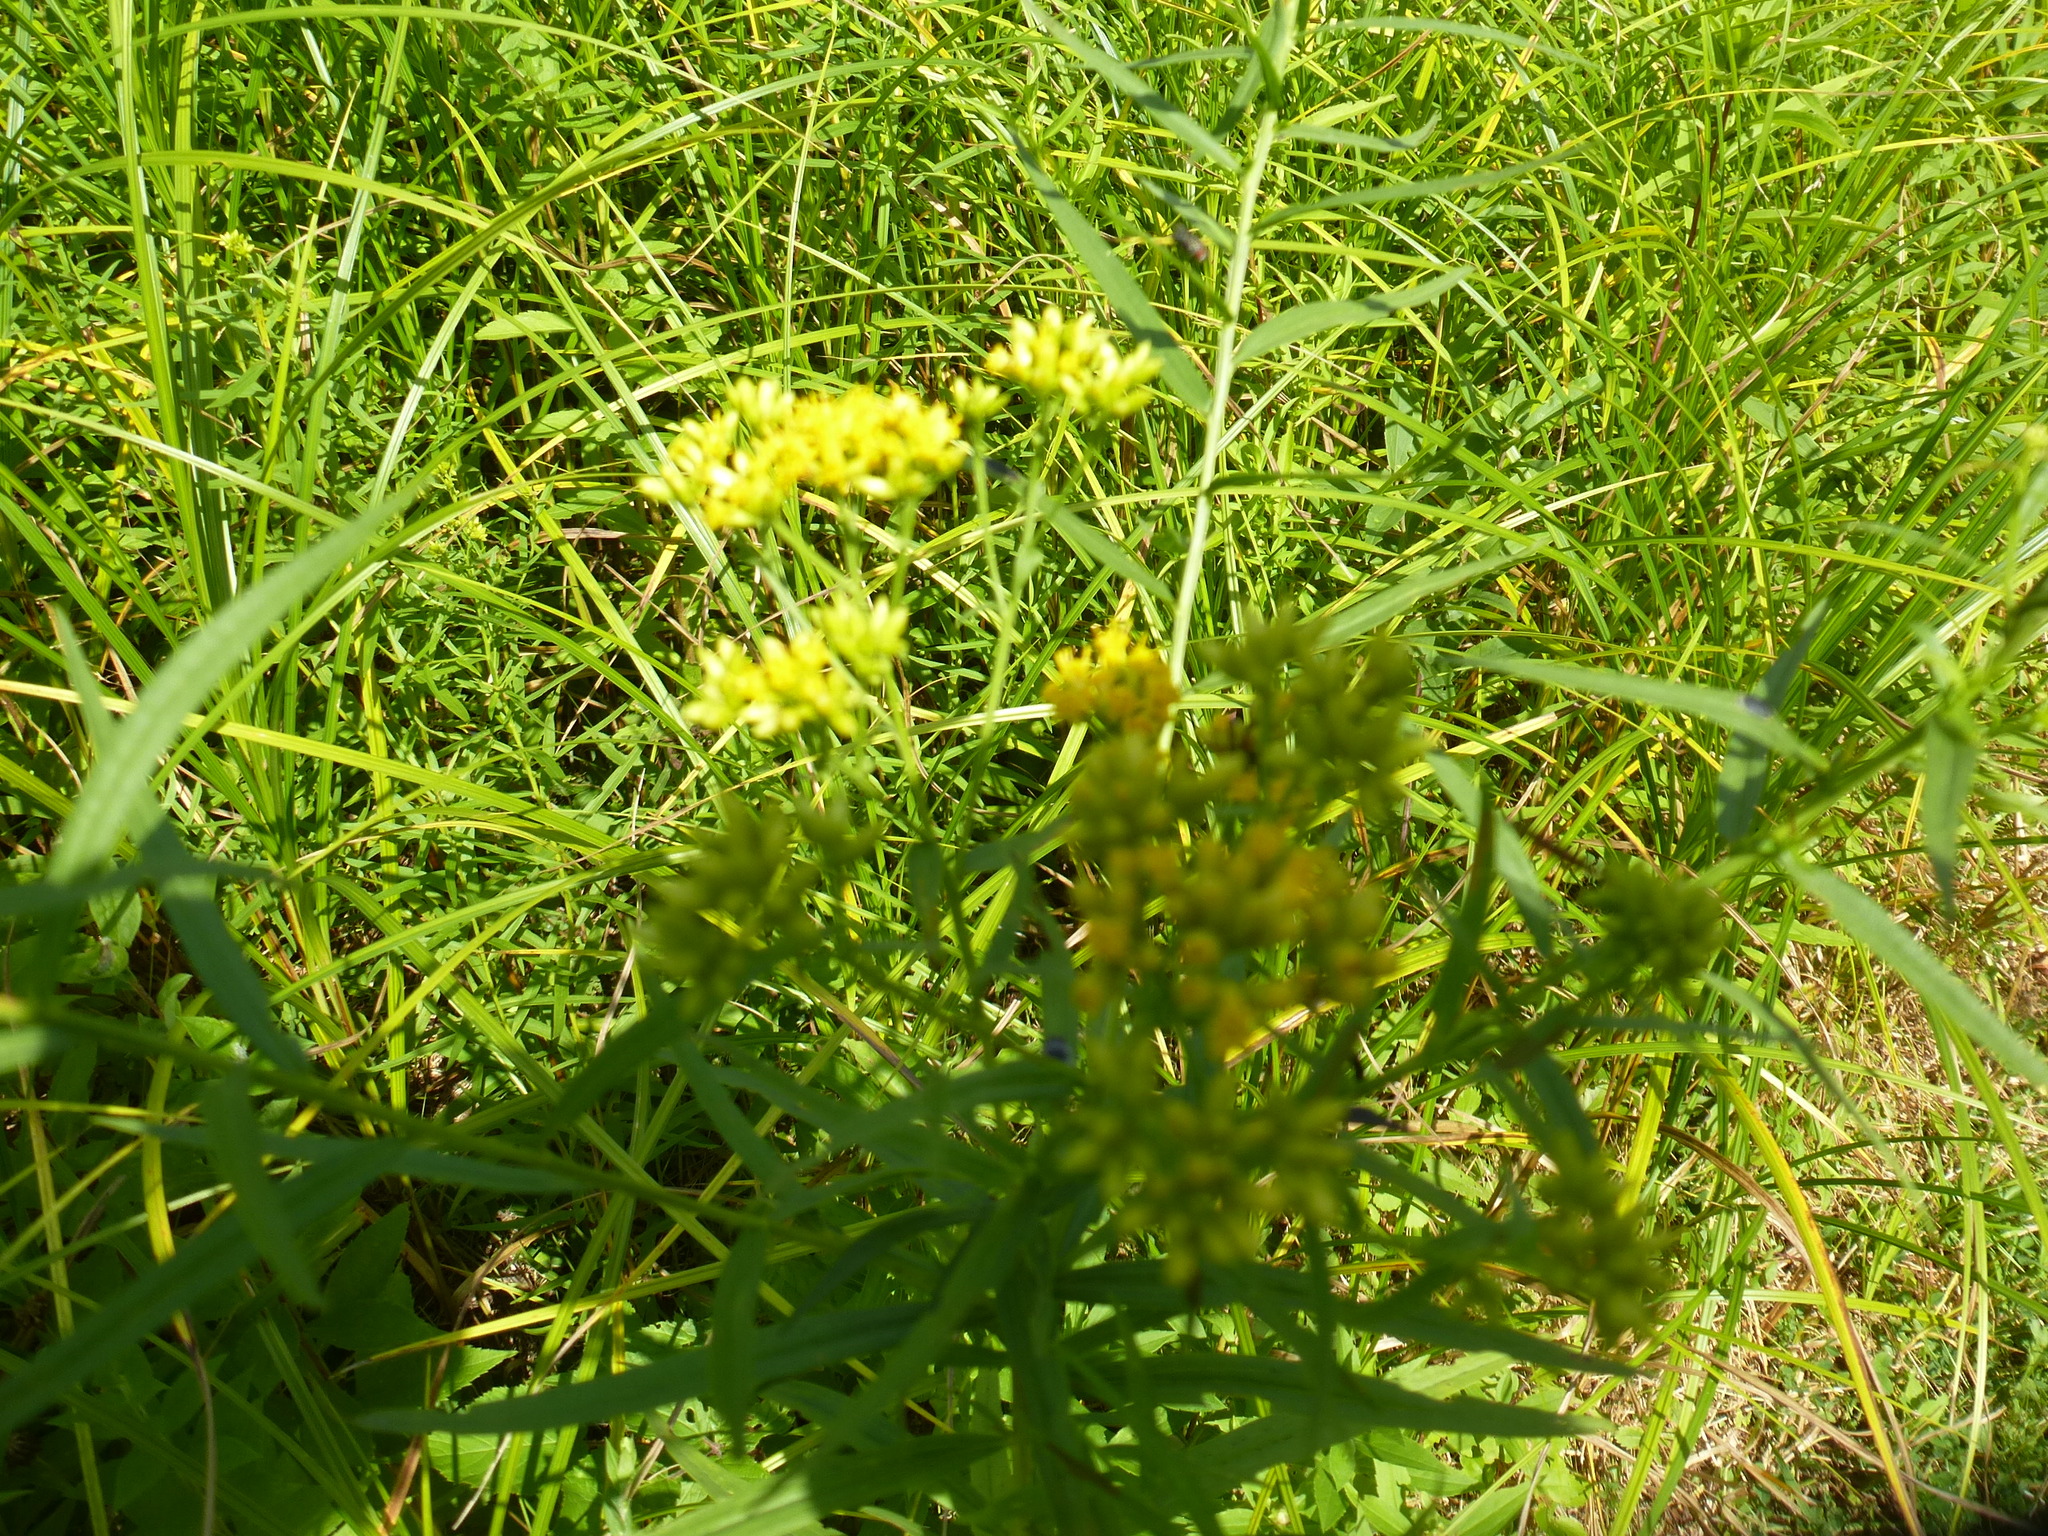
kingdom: Plantae
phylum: Tracheophyta
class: Magnoliopsida
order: Asterales
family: Asteraceae
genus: Euthamia
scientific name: Euthamia graminifolia
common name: Common goldentop
